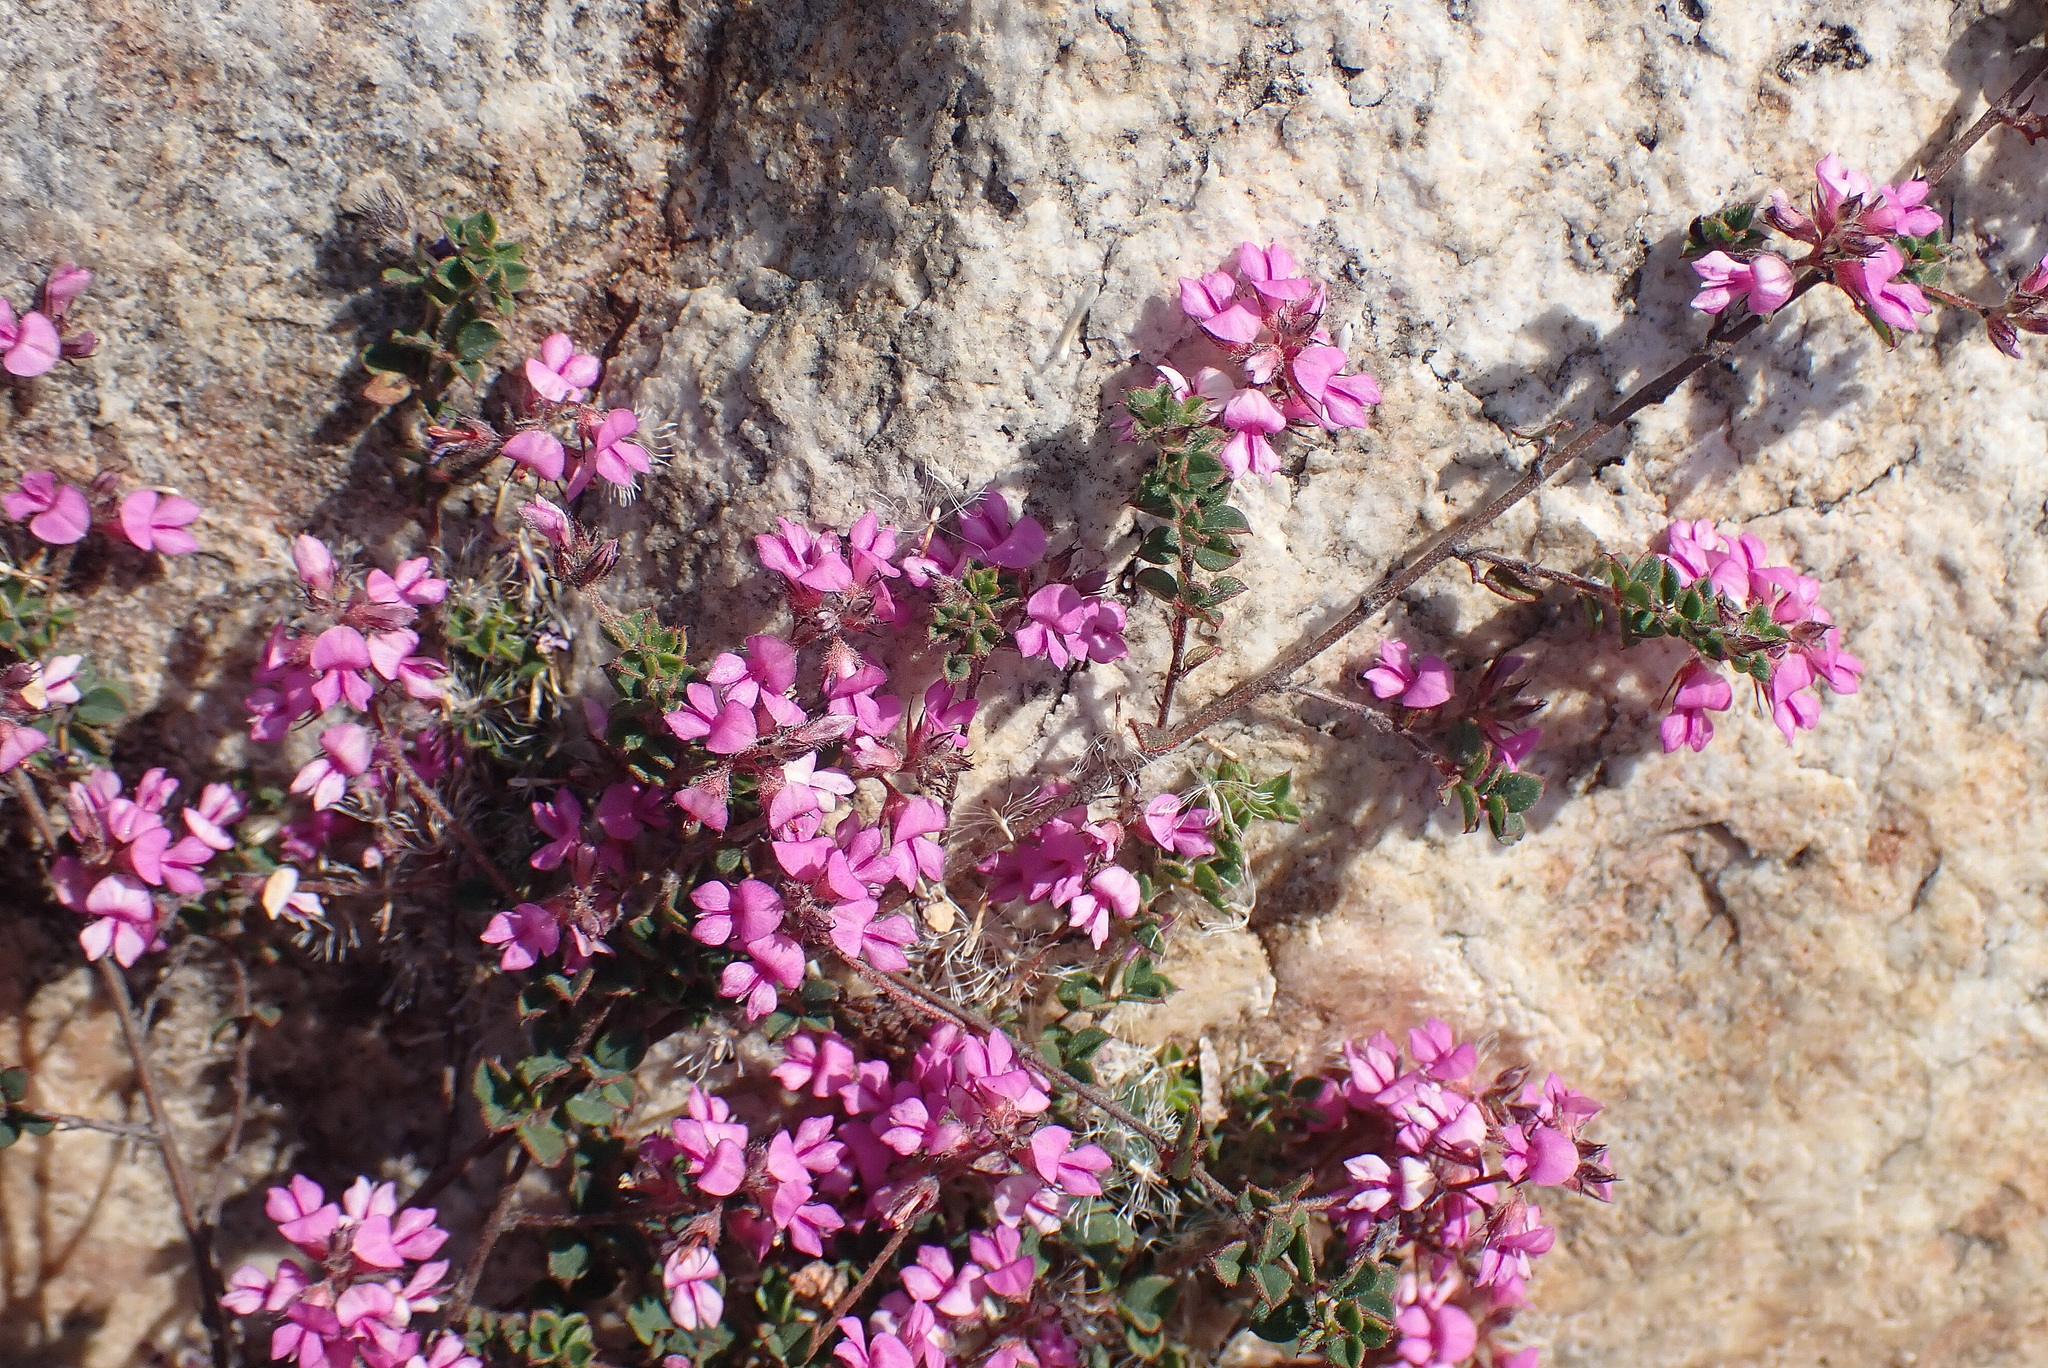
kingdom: Plantae
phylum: Tracheophyta
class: Magnoliopsida
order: Fabales
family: Fabaceae
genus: Indigofera
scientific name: Indigofera alopecuroides
